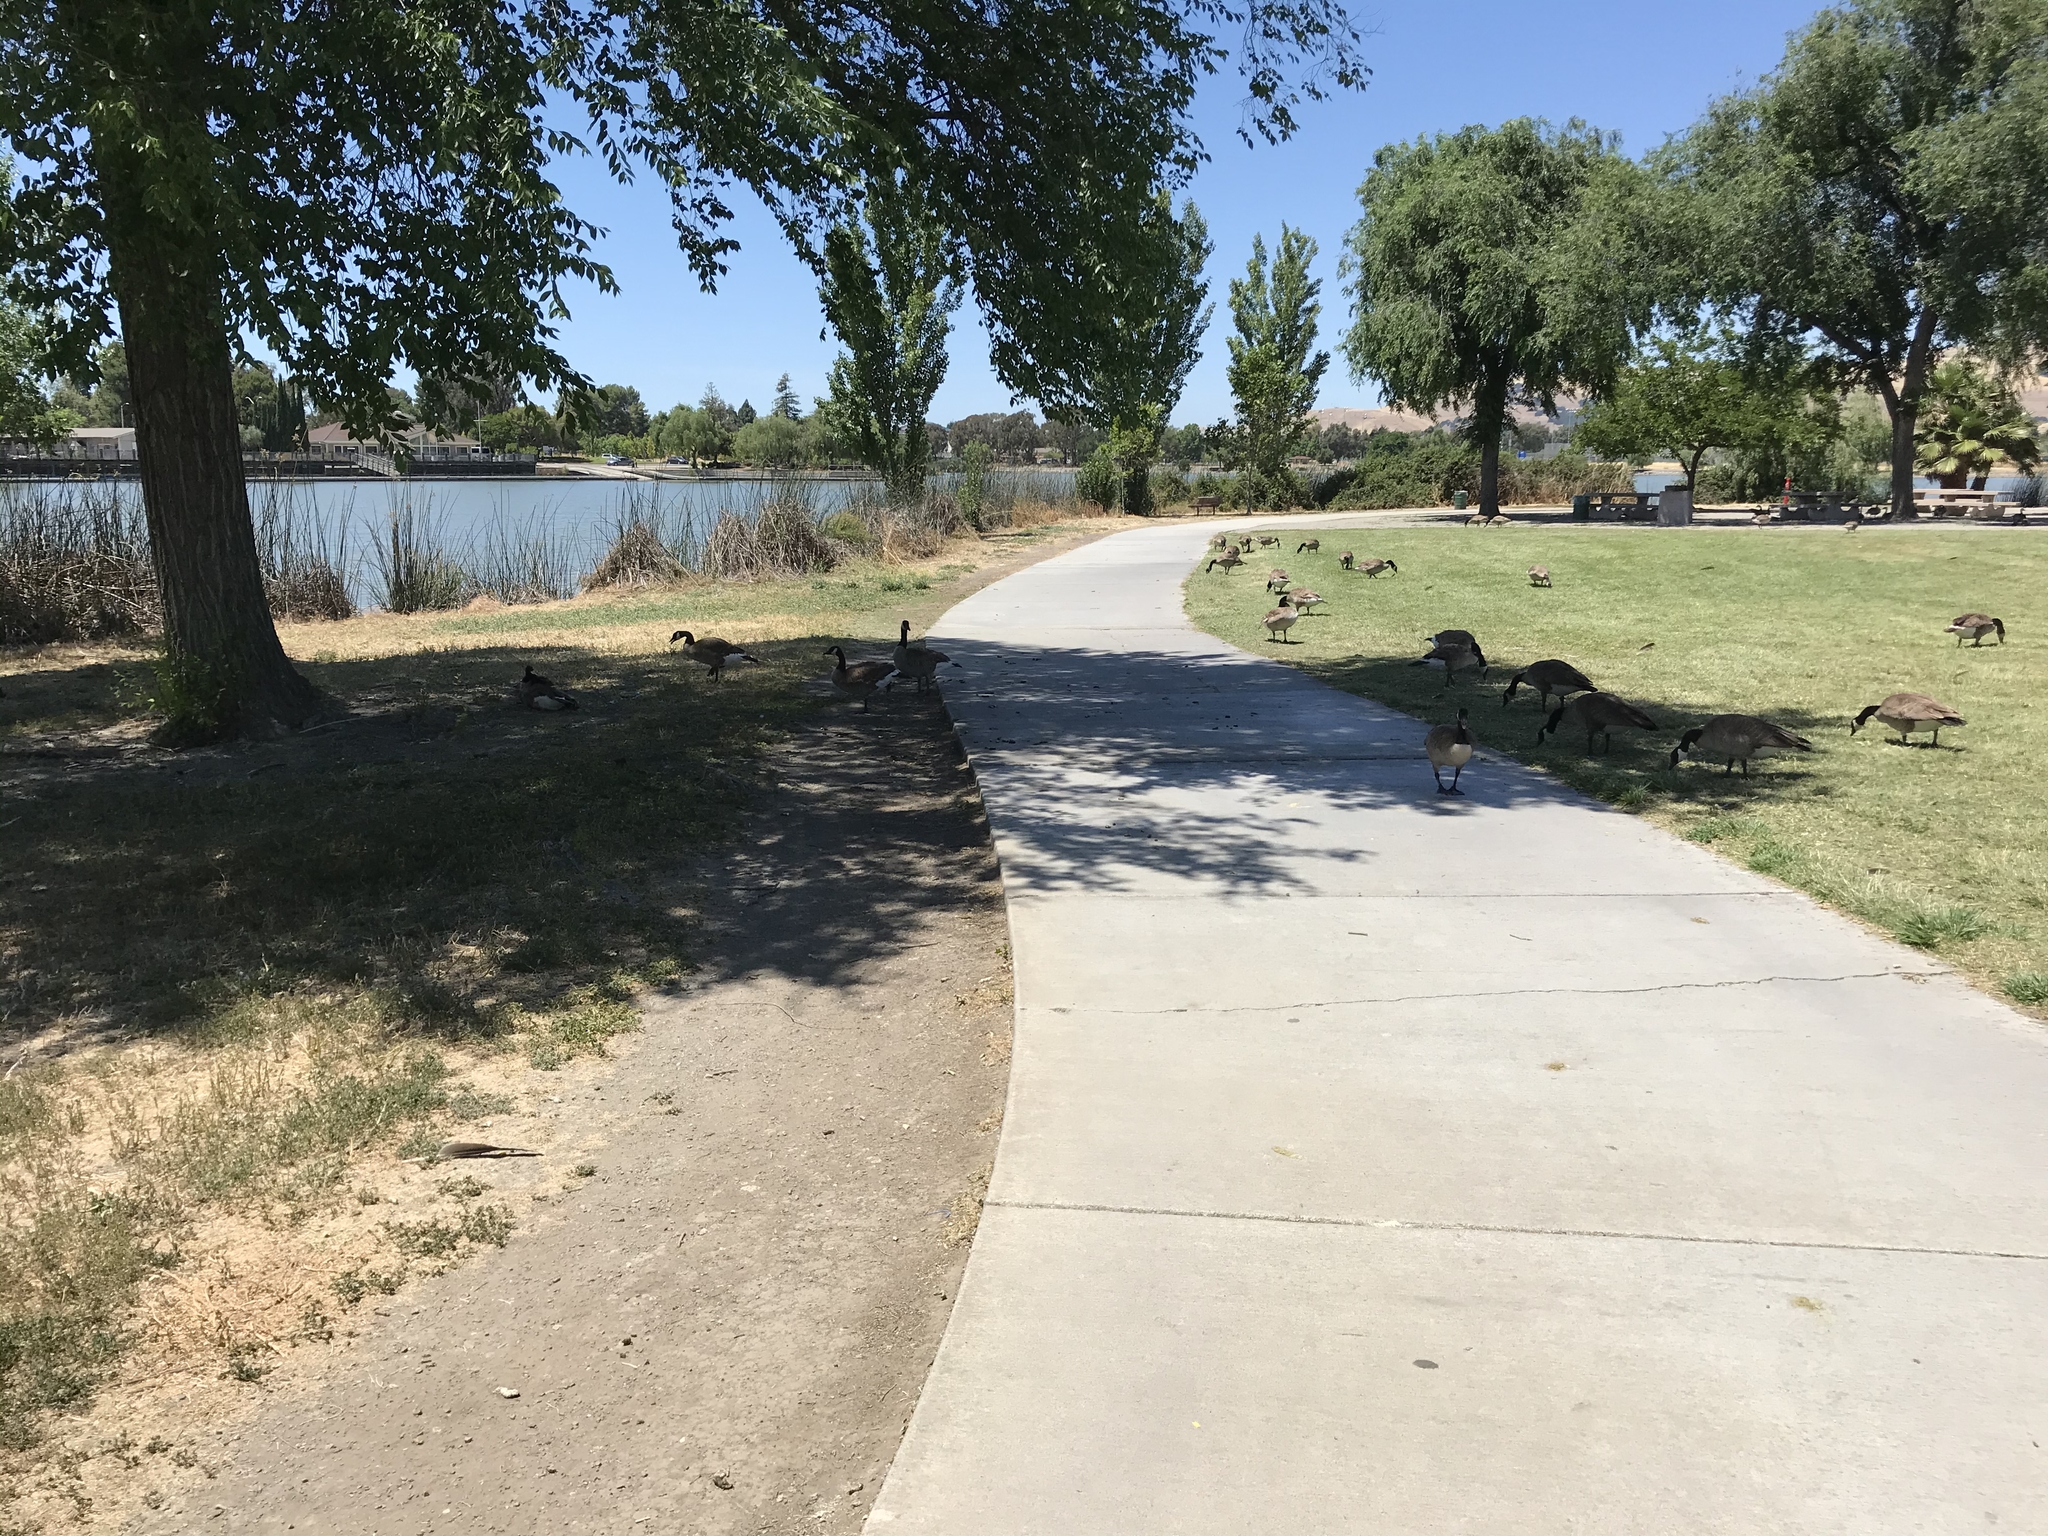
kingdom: Animalia
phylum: Chordata
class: Aves
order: Anseriformes
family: Anatidae
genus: Branta
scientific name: Branta canadensis
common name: Canada goose
